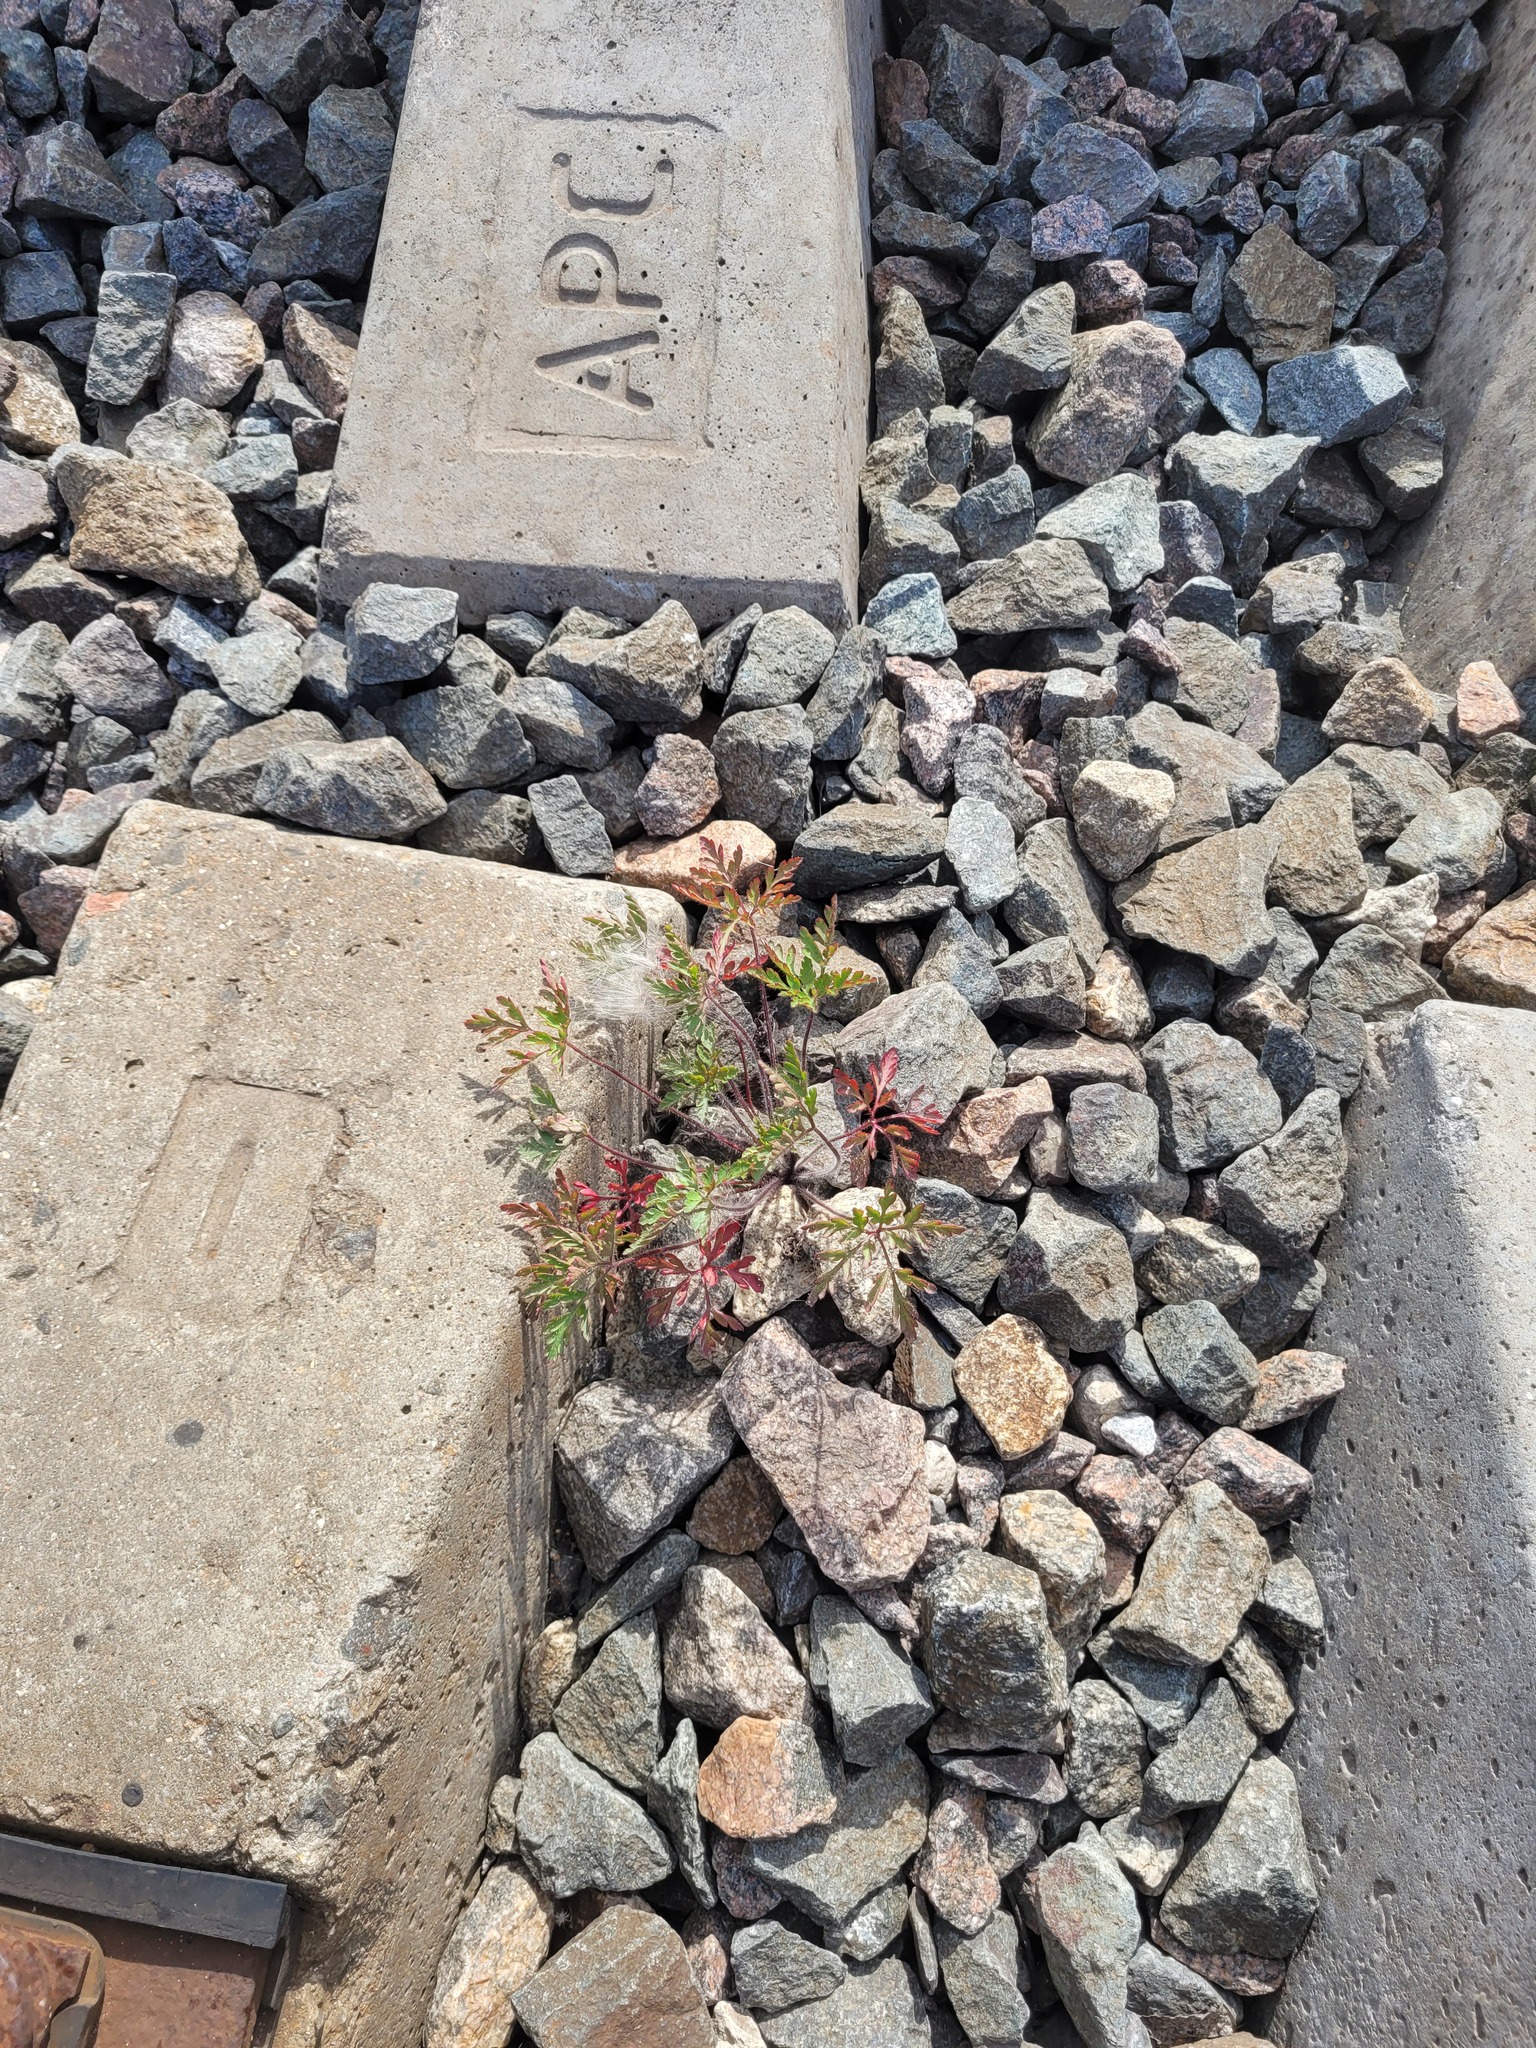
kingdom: Plantae
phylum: Tracheophyta
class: Magnoliopsida
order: Geraniales
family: Geraniaceae
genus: Geranium
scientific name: Geranium robertianum
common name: Herb-robert
